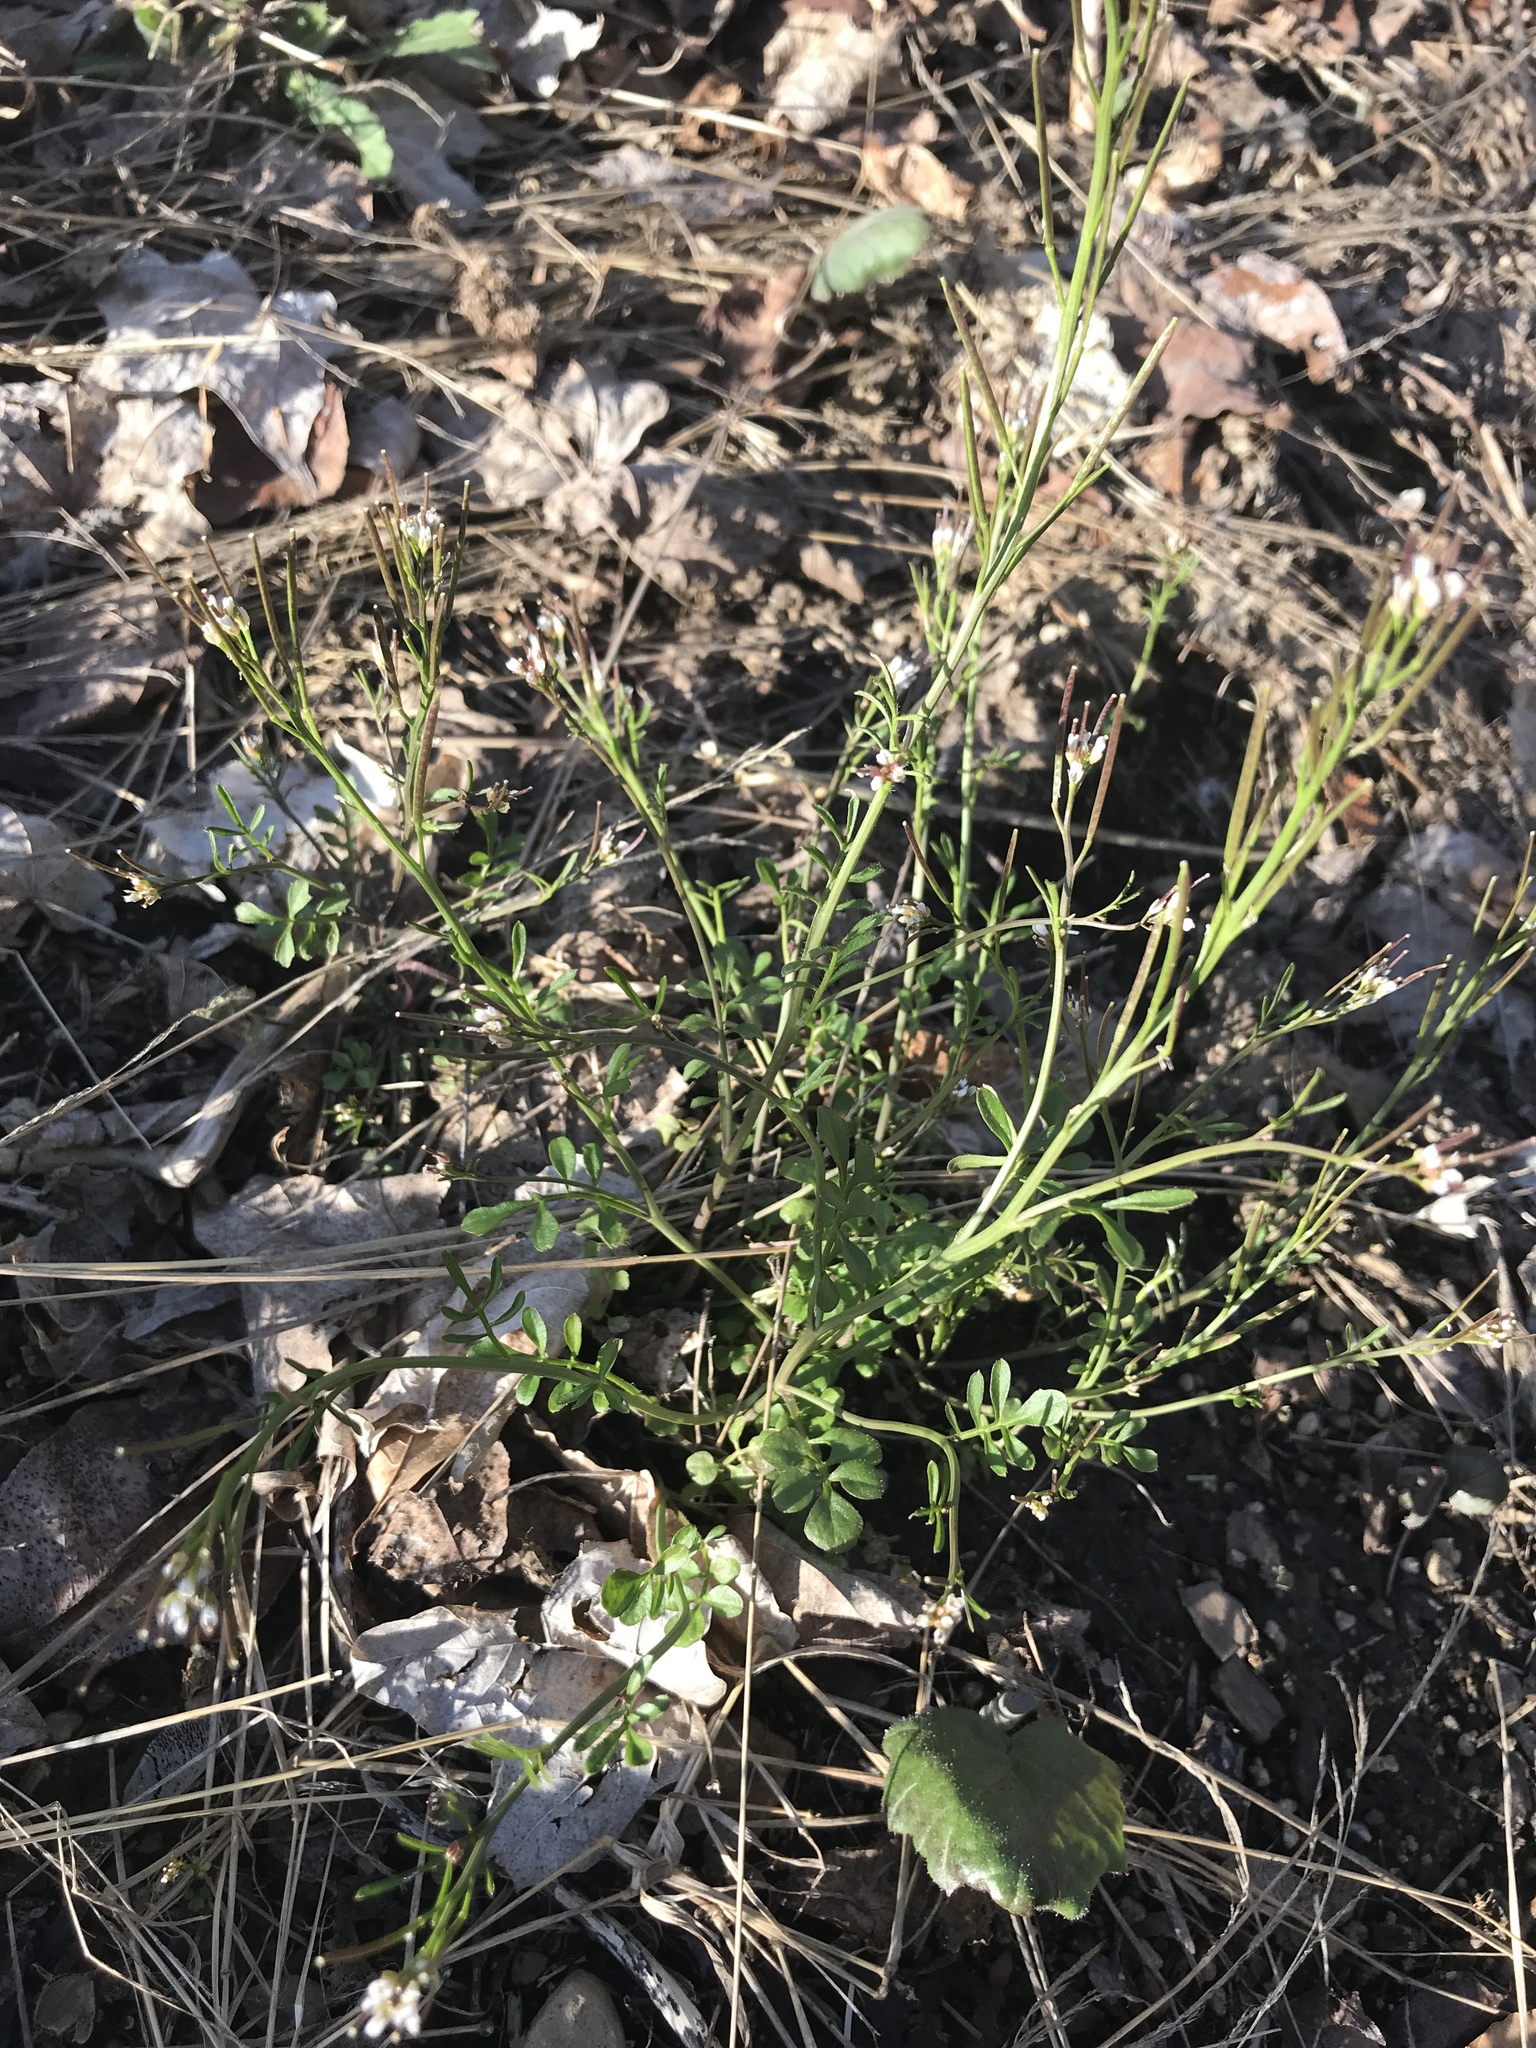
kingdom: Plantae
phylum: Tracheophyta
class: Magnoliopsida
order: Brassicales
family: Brassicaceae
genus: Cardamine
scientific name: Cardamine hirsuta
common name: Hairy bittercress
